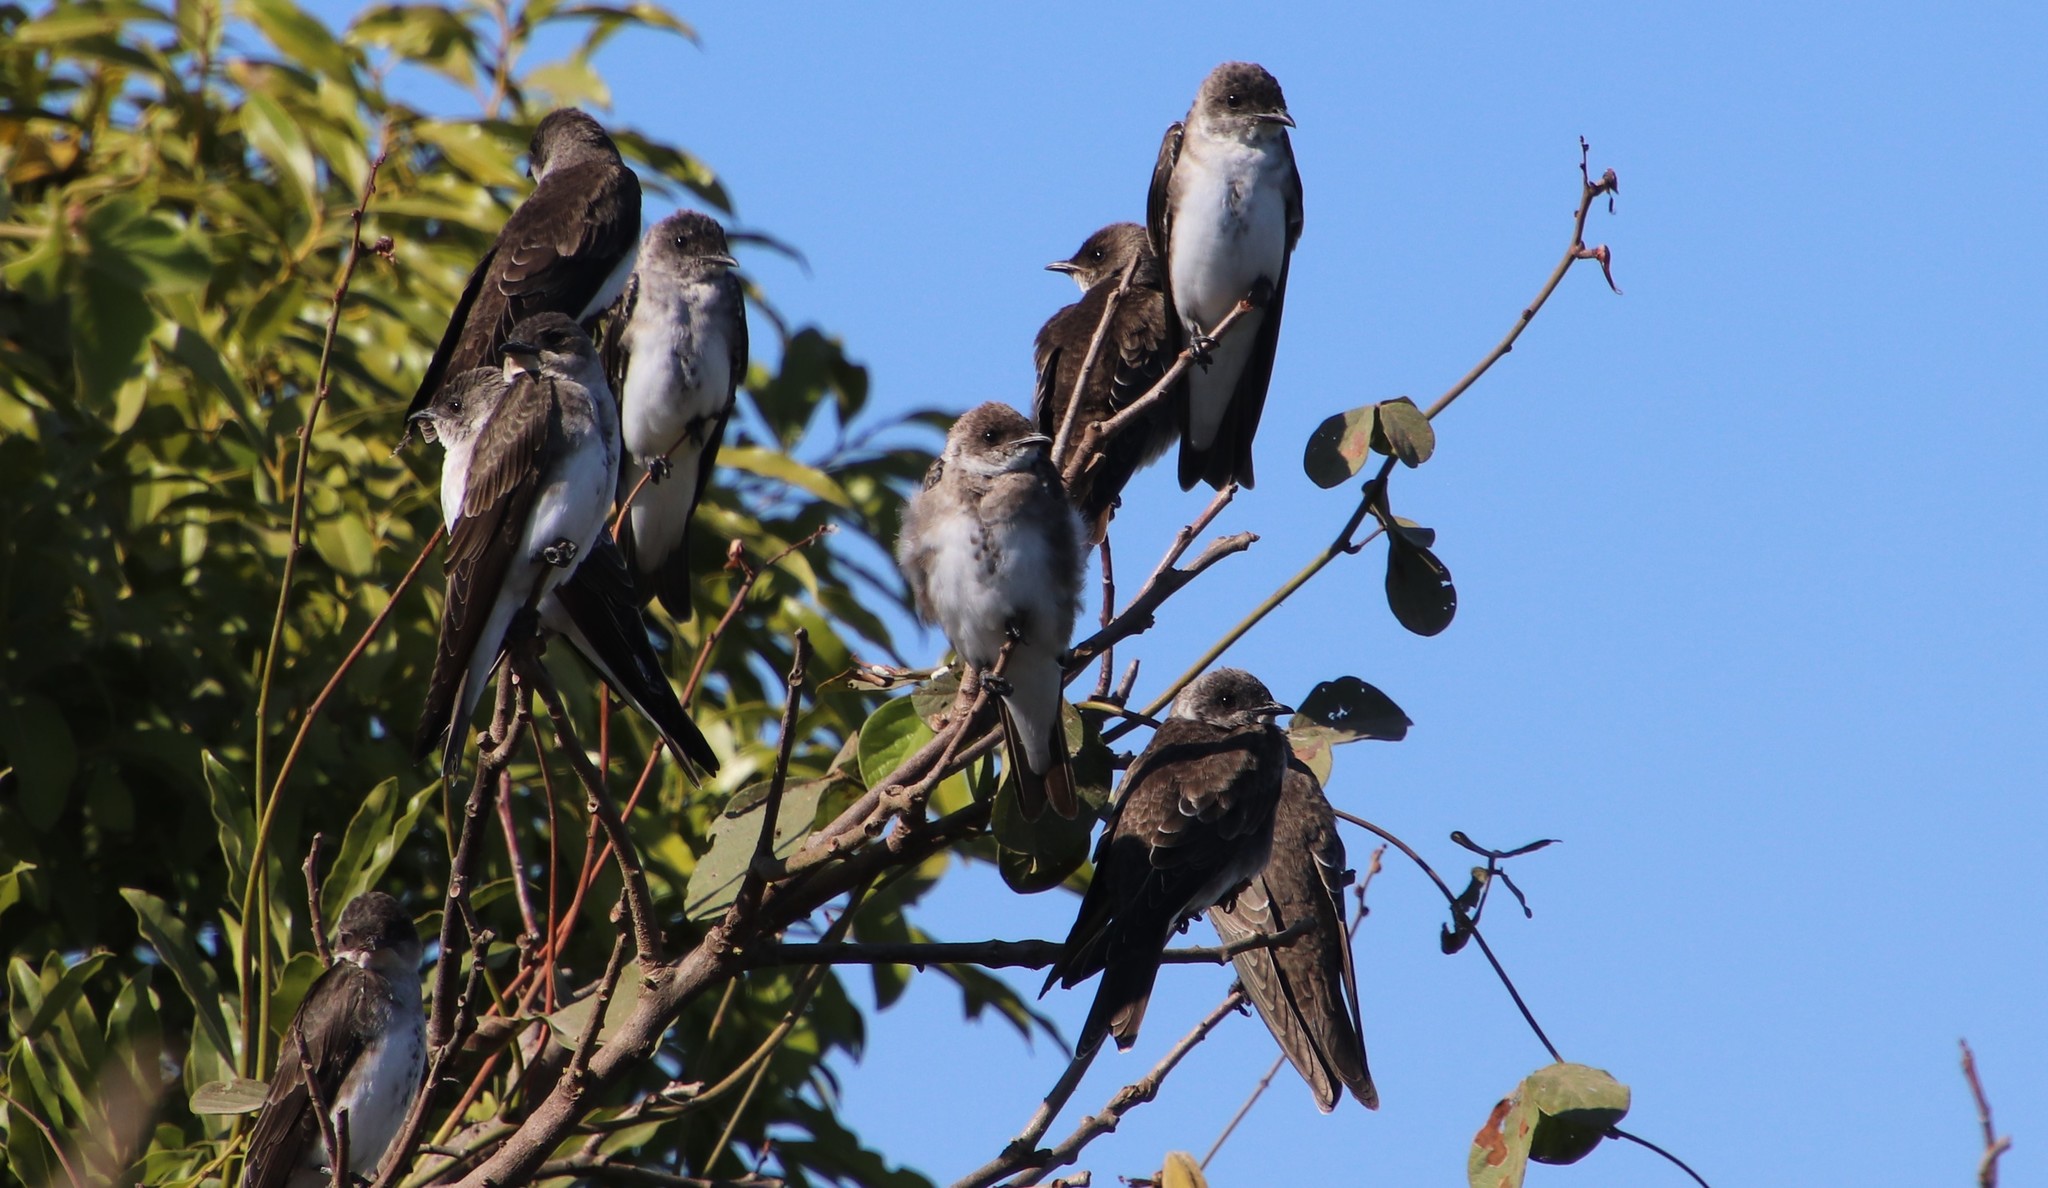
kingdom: Animalia
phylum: Chordata
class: Aves
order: Passeriformes
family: Hirundinidae
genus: Progne
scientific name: Progne tapera
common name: Brown-chested martin
